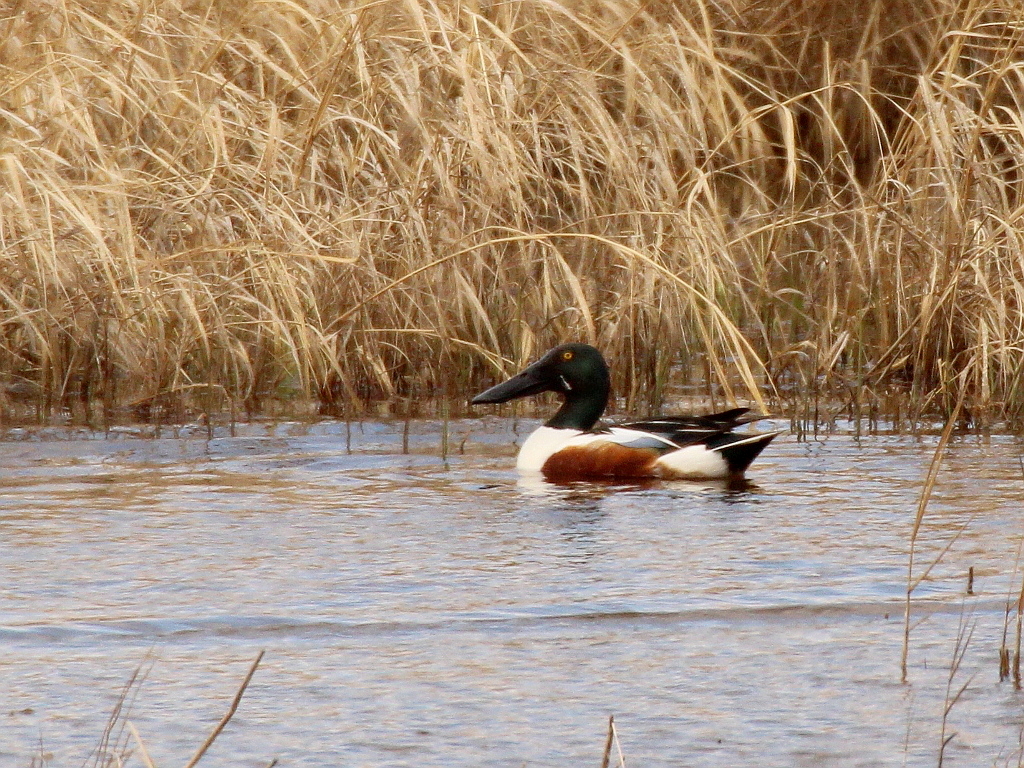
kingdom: Animalia
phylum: Chordata
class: Aves
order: Anseriformes
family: Anatidae
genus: Spatula
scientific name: Spatula clypeata
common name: Northern shoveler
